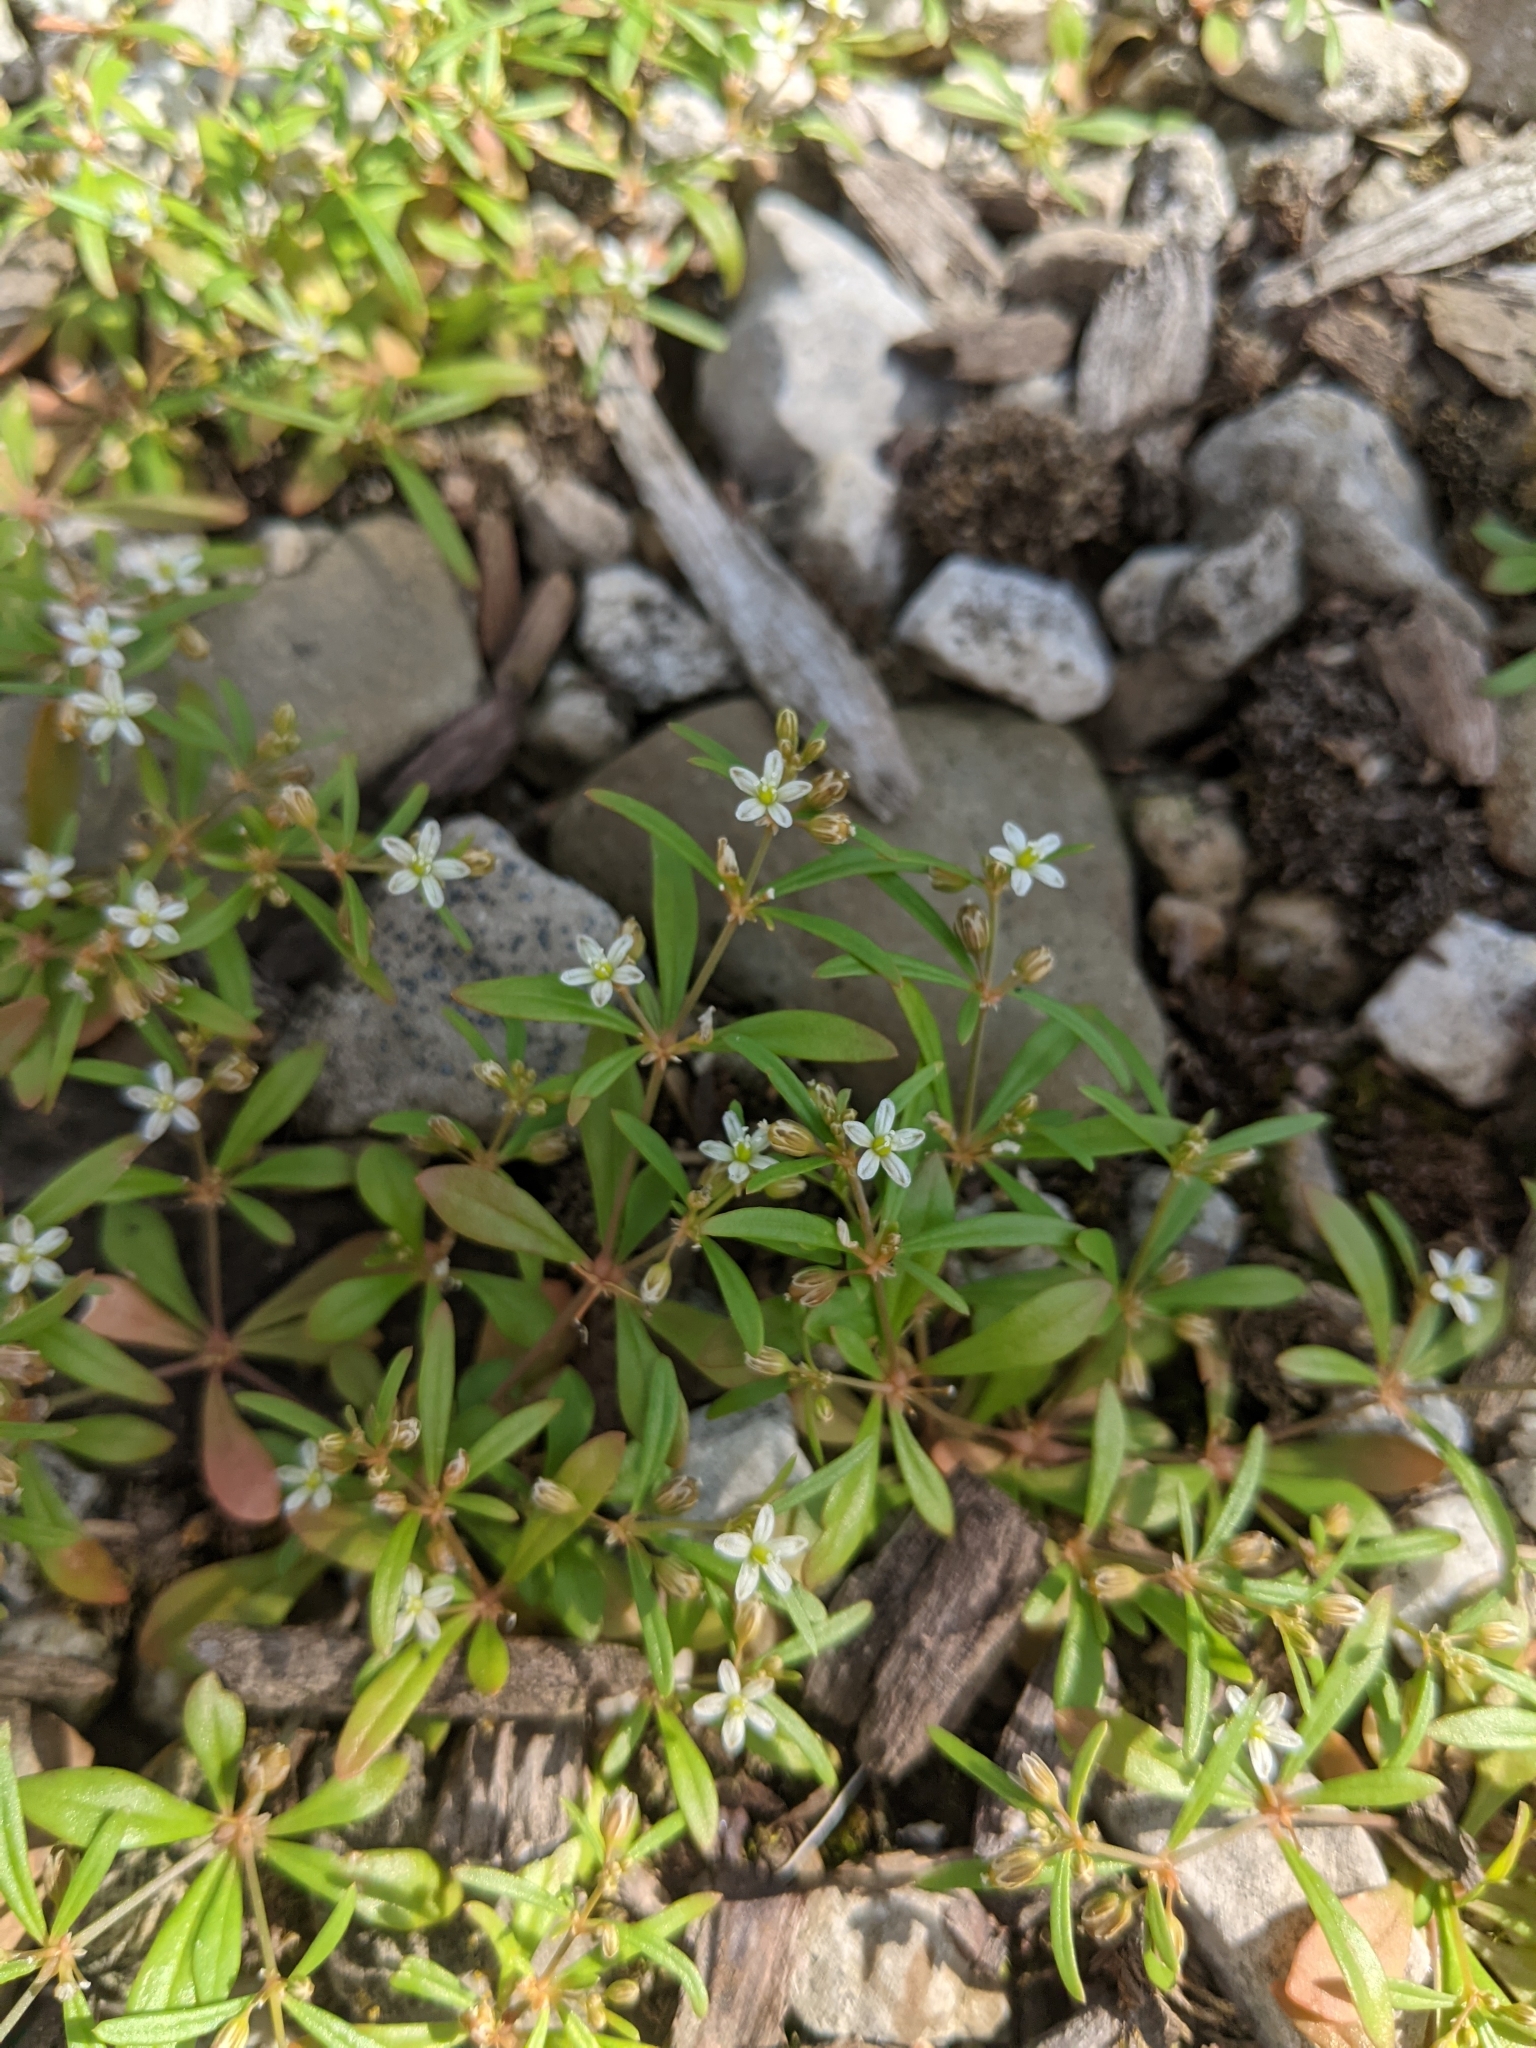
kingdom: Plantae
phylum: Tracheophyta
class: Magnoliopsida
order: Caryophyllales
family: Molluginaceae
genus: Mollugo
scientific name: Mollugo verticillata
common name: Green carpetweed
